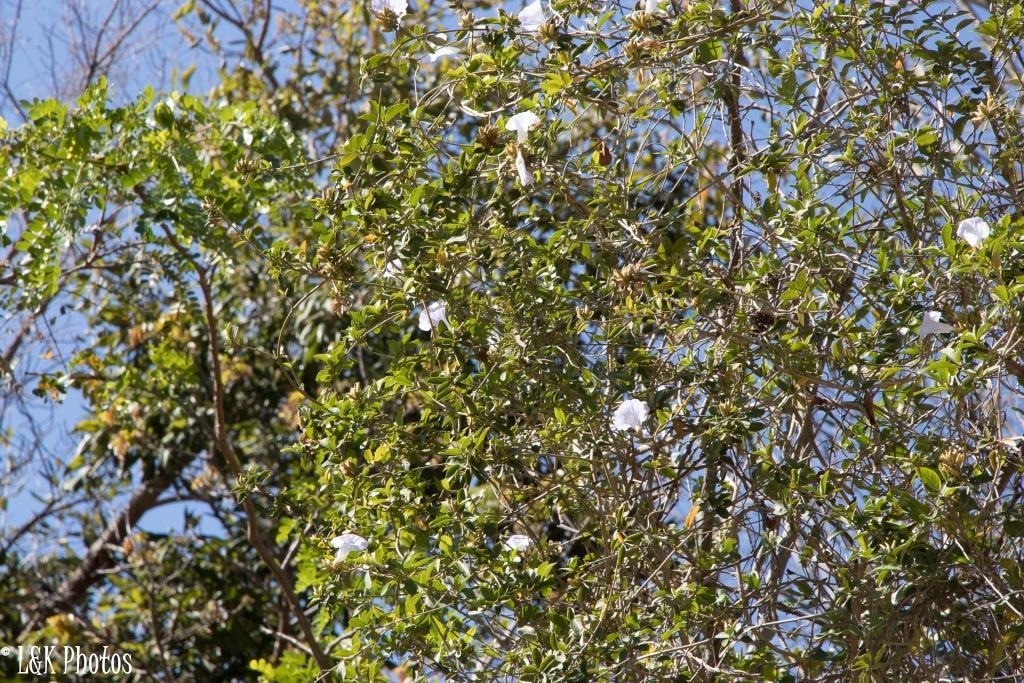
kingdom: Plantae
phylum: Tracheophyta
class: Magnoliopsida
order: Solanales
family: Convolvulaceae
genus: Bonamia
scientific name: Bonamia spectabilis
